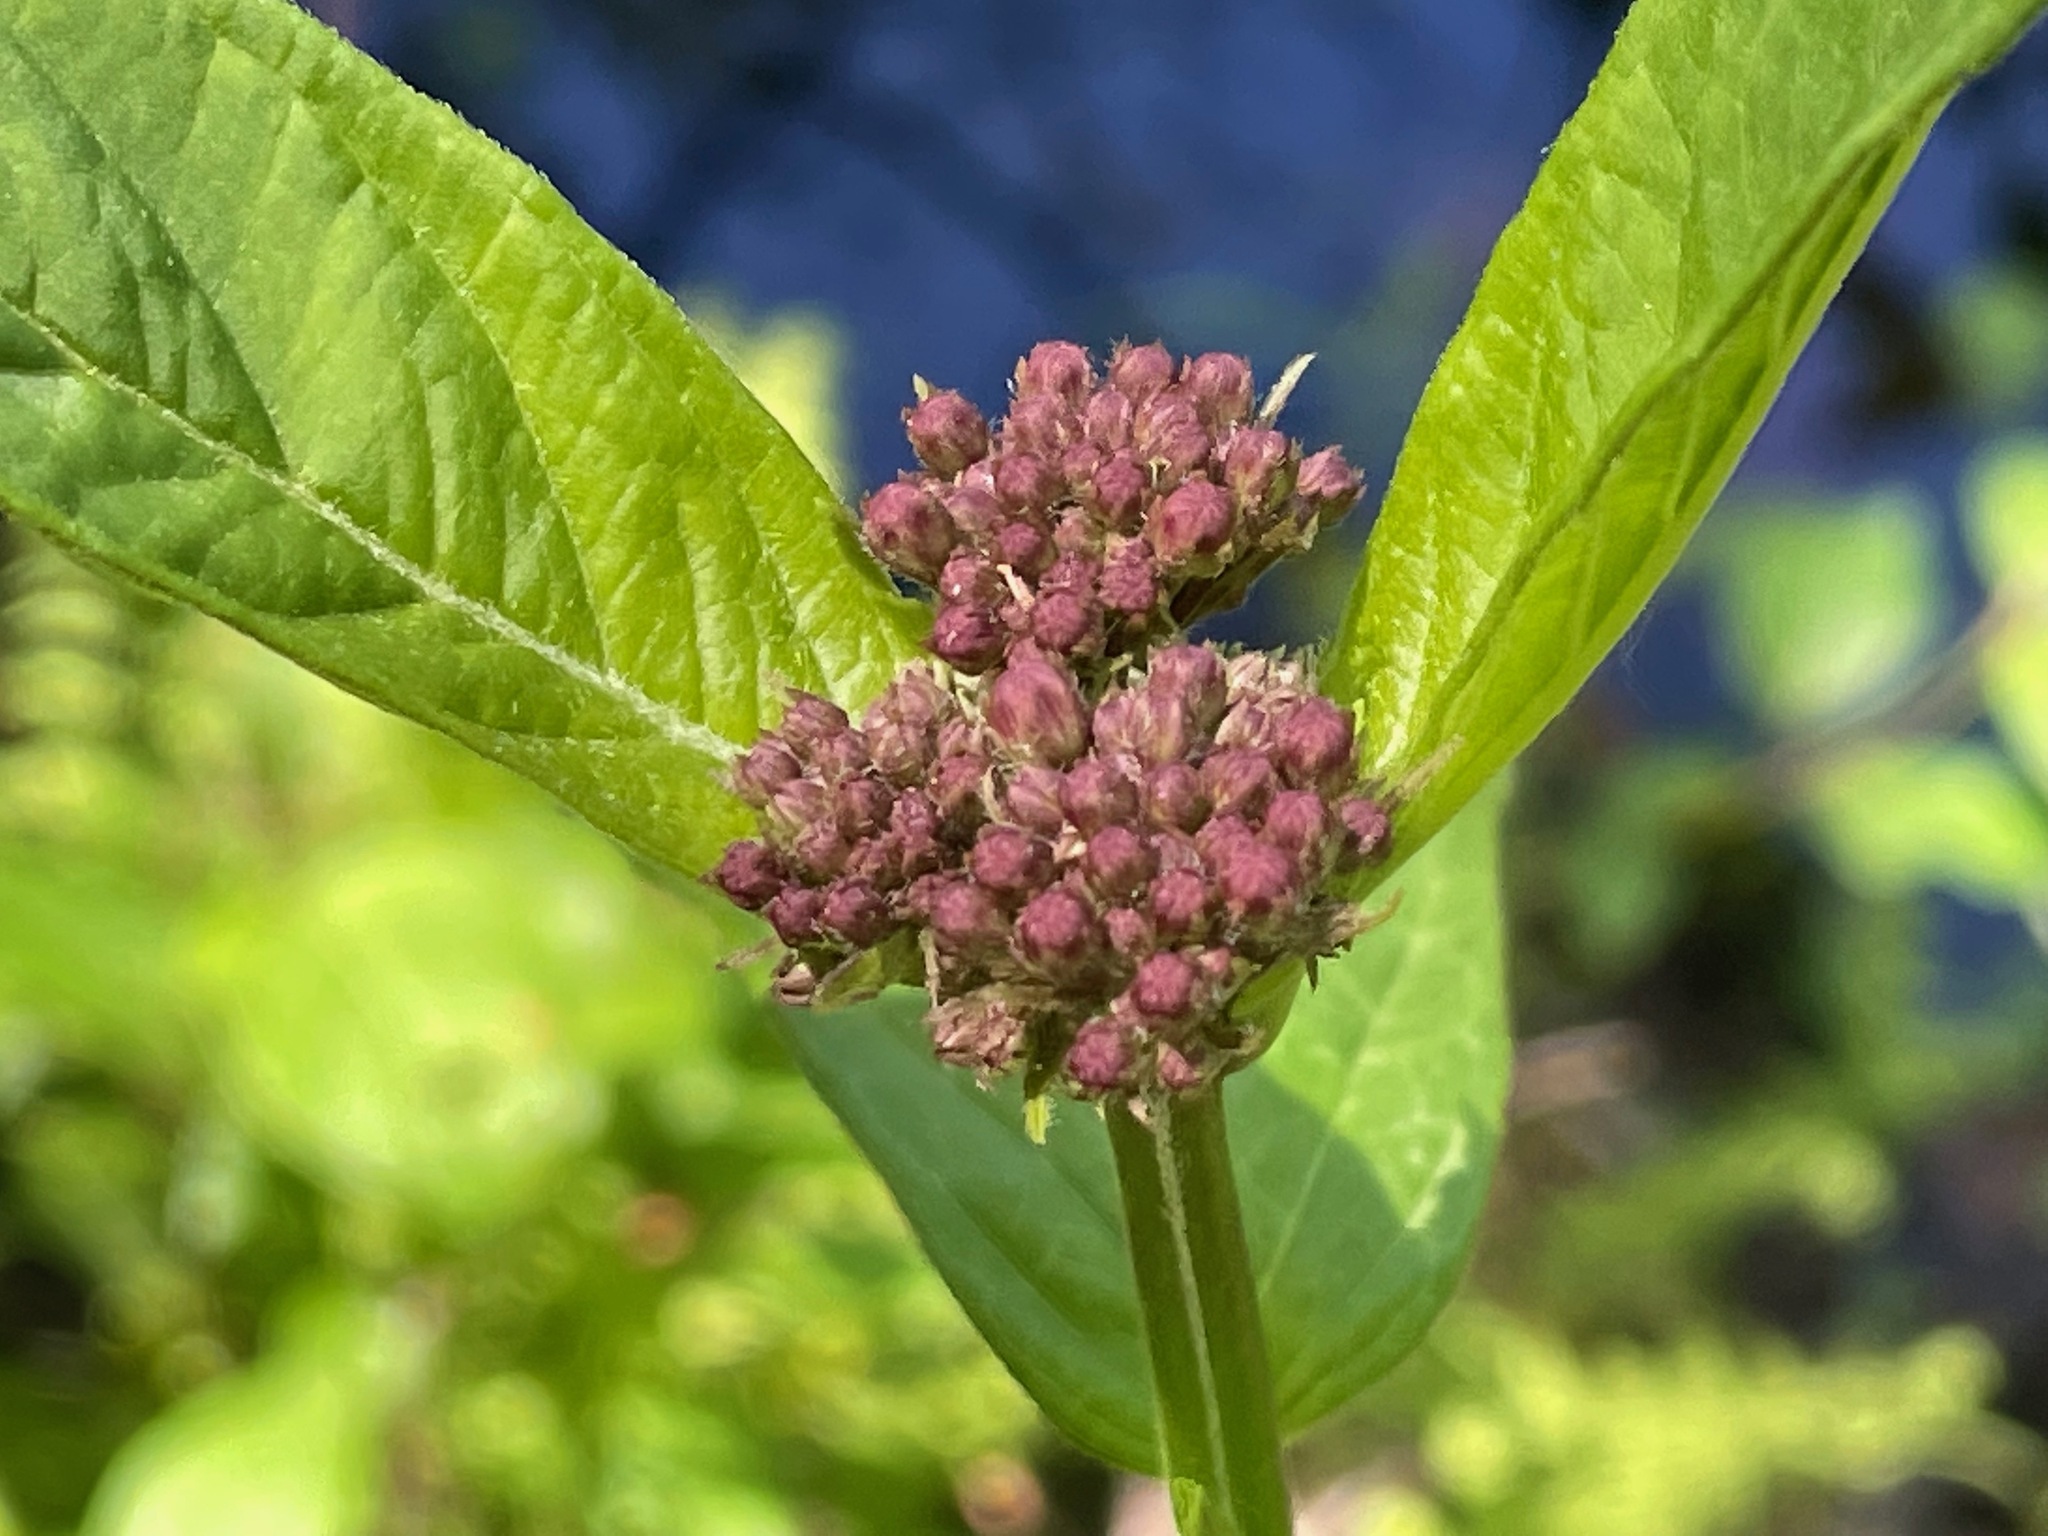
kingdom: Plantae
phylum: Tracheophyta
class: Magnoliopsida
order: Gentianales
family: Apocynaceae
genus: Asclepias
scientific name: Asclepias incarnata
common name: Swamp milkweed
